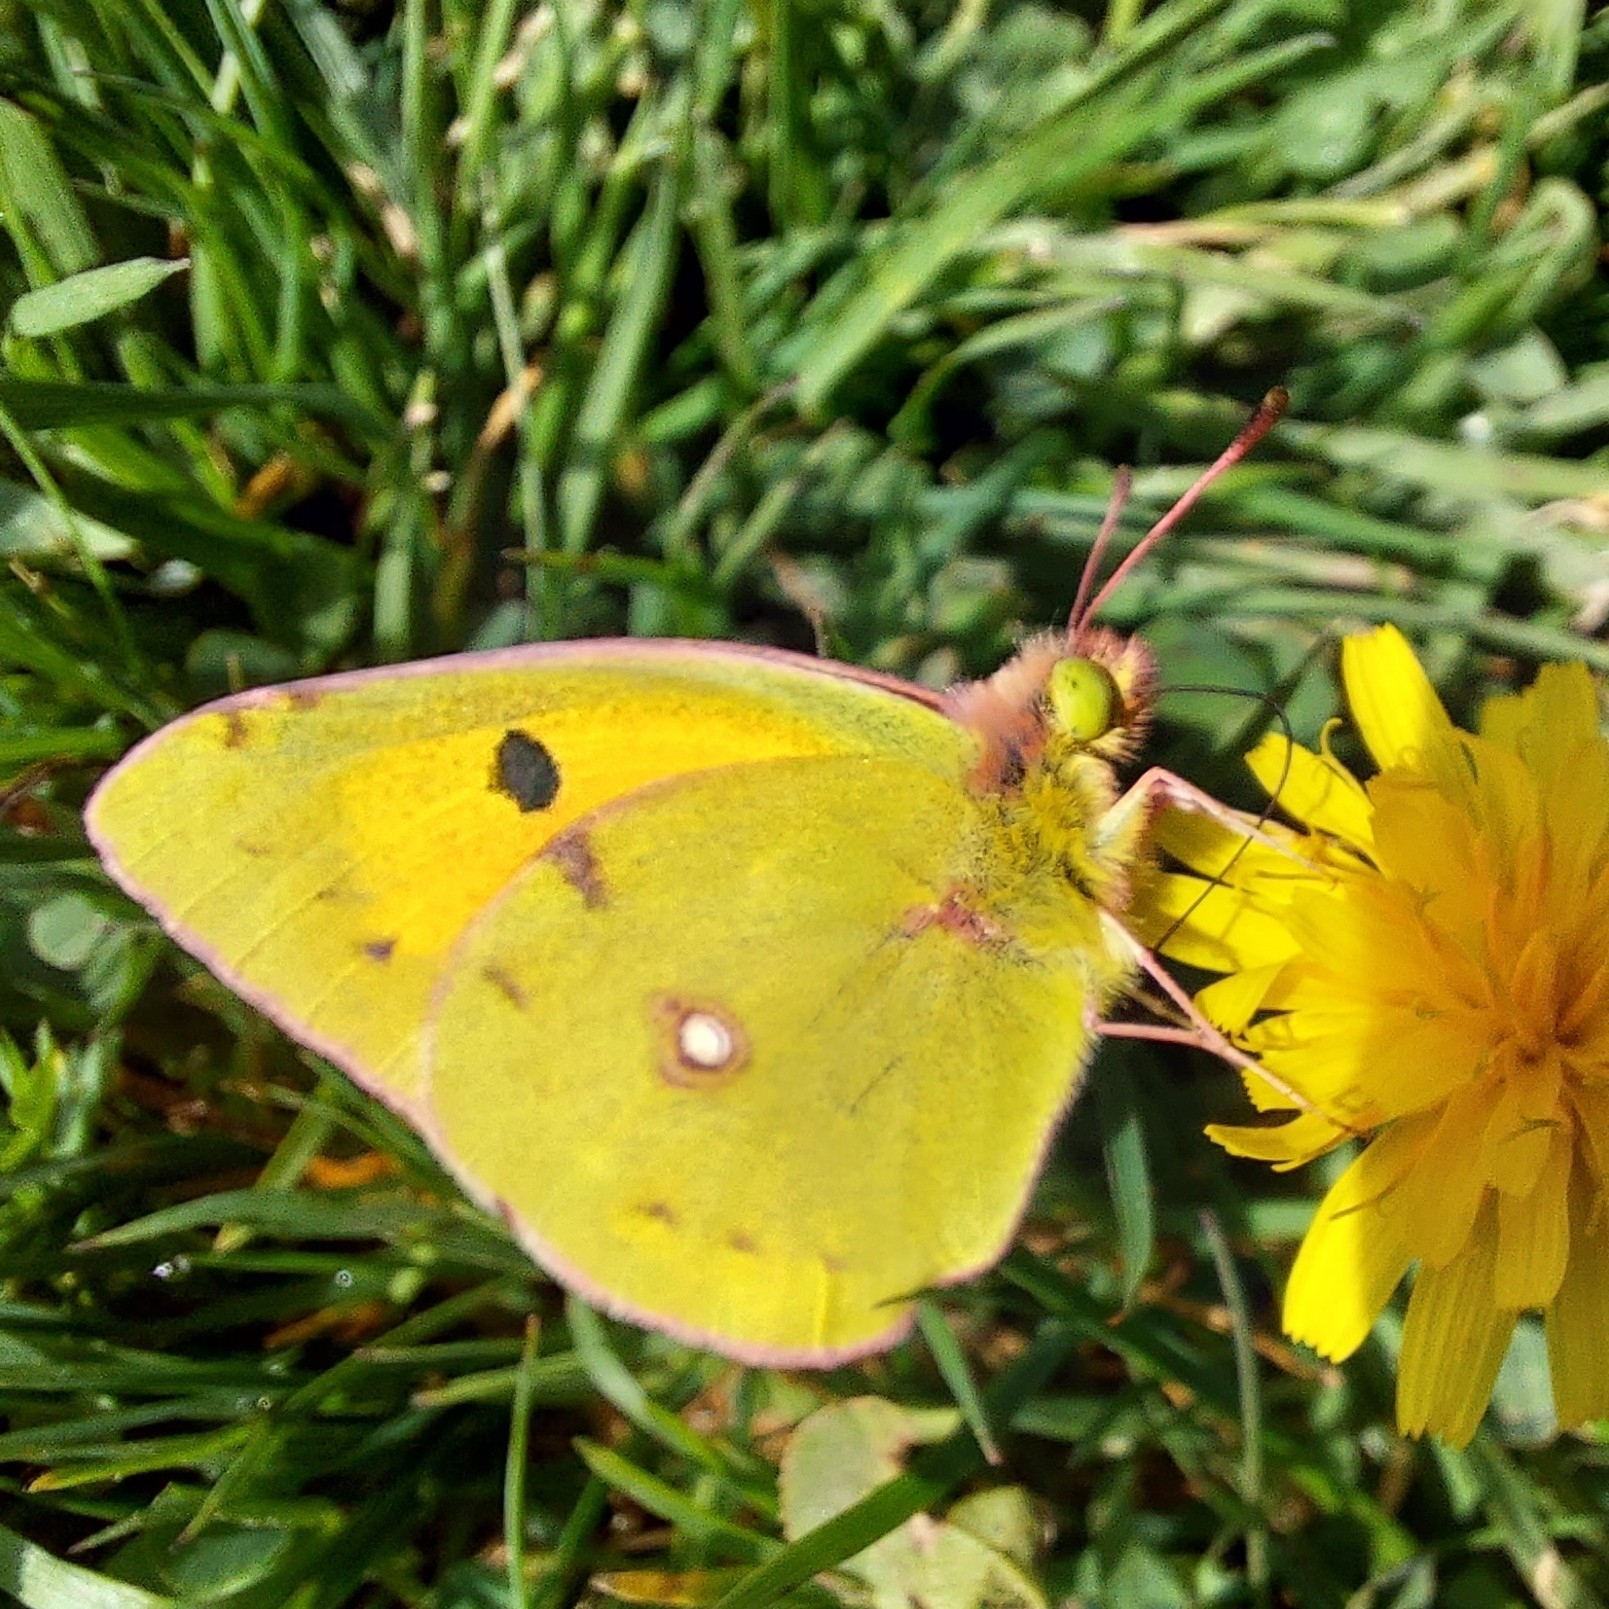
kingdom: Animalia
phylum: Arthropoda
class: Insecta
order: Lepidoptera
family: Pieridae
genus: Colias
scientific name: Colias croceus
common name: Clouded yellow
